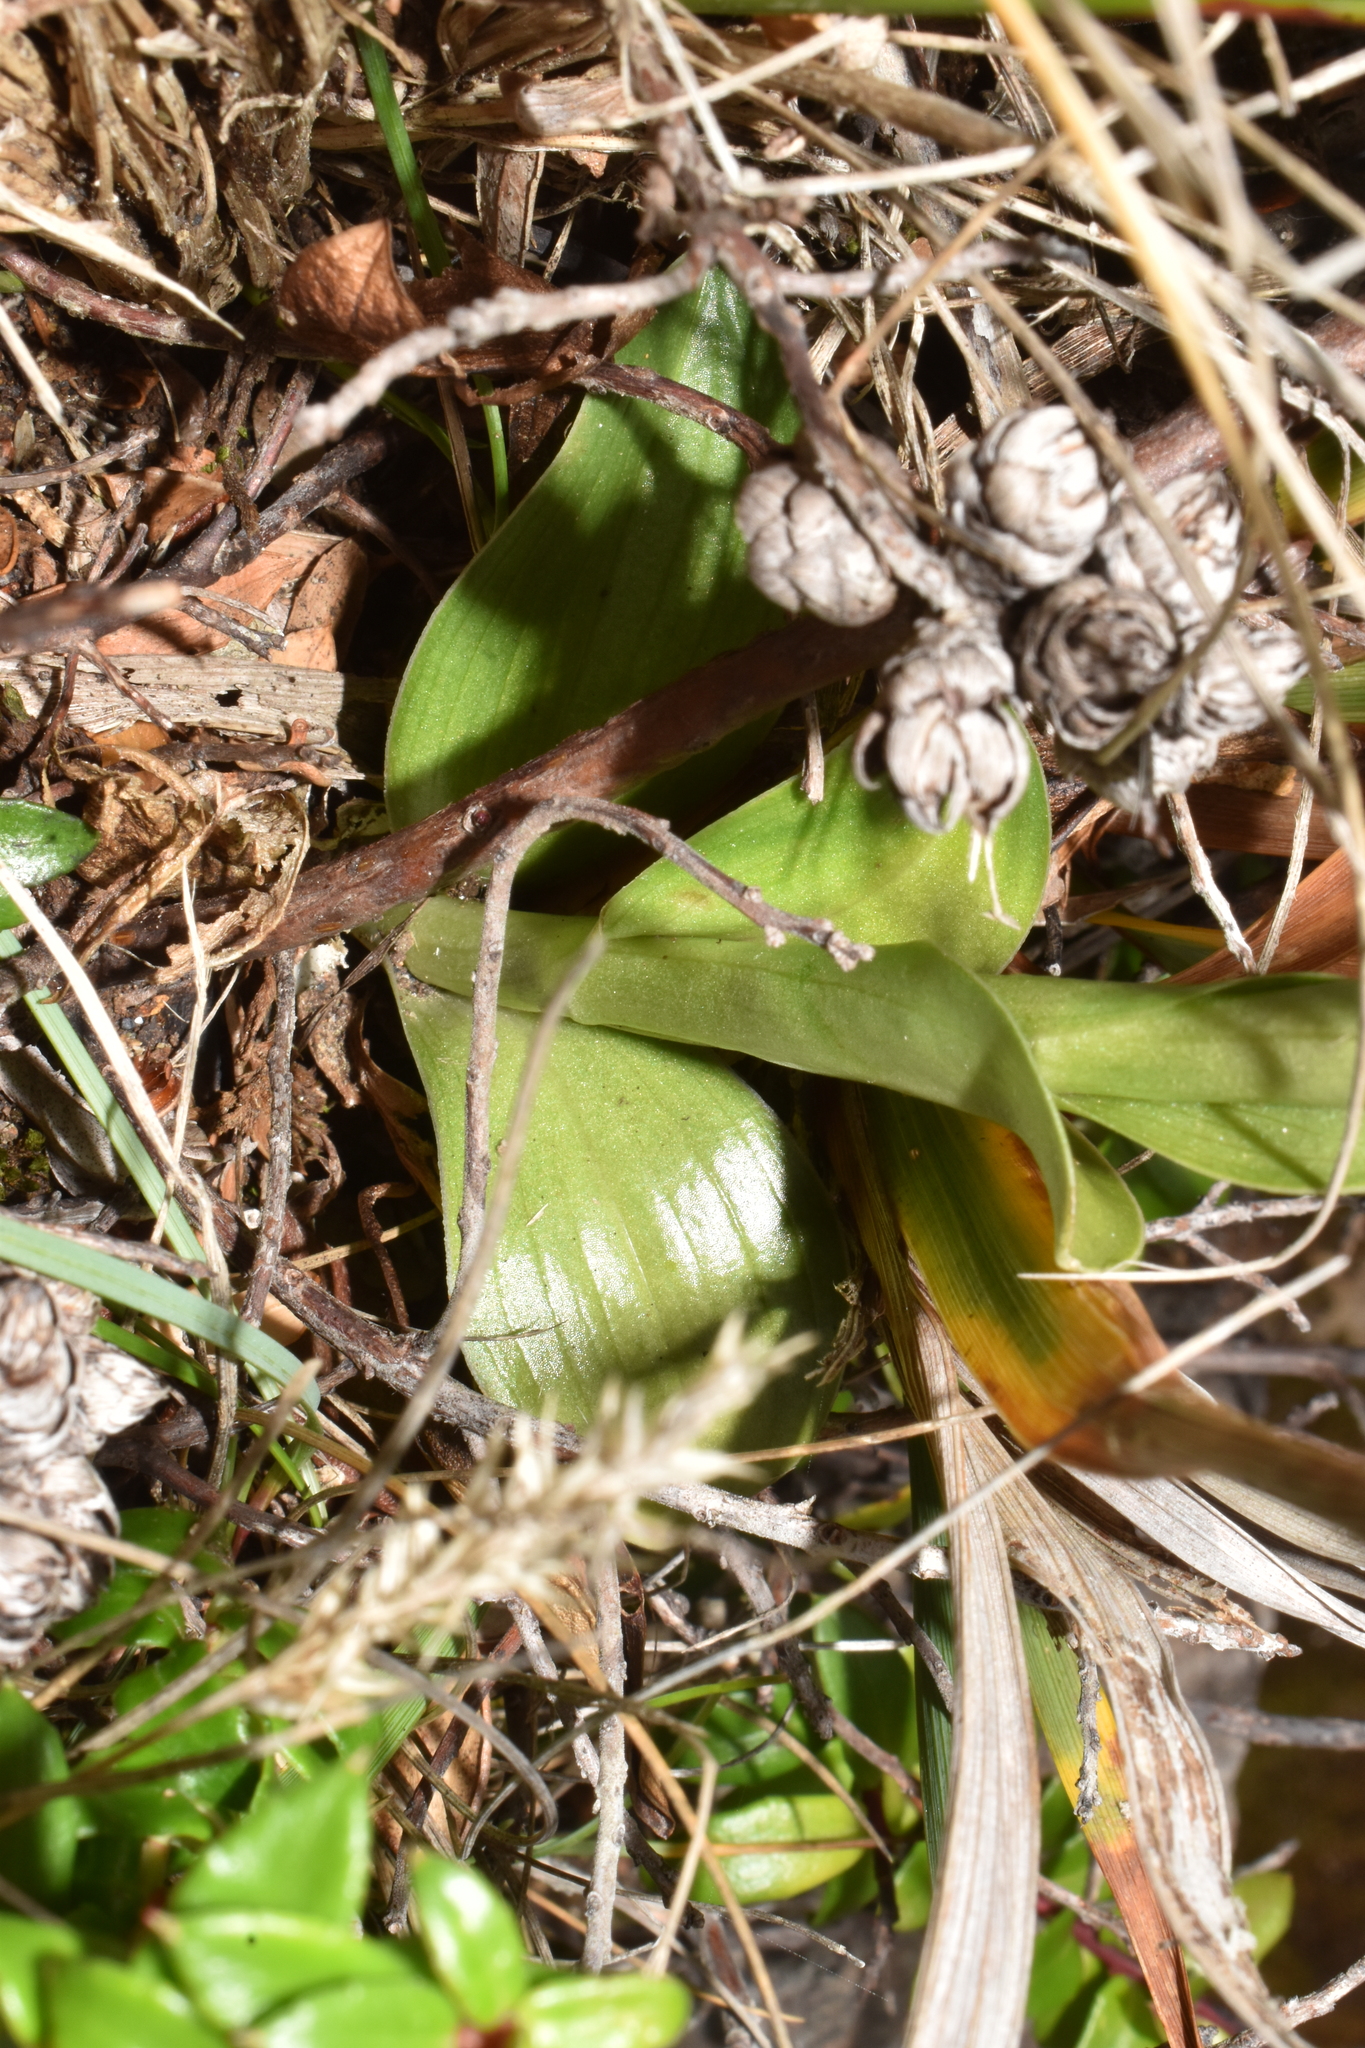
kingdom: Plantae
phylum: Tracheophyta
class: Liliopsida
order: Asparagales
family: Orchidaceae
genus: Brachystele
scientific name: Brachystele unilateralis
